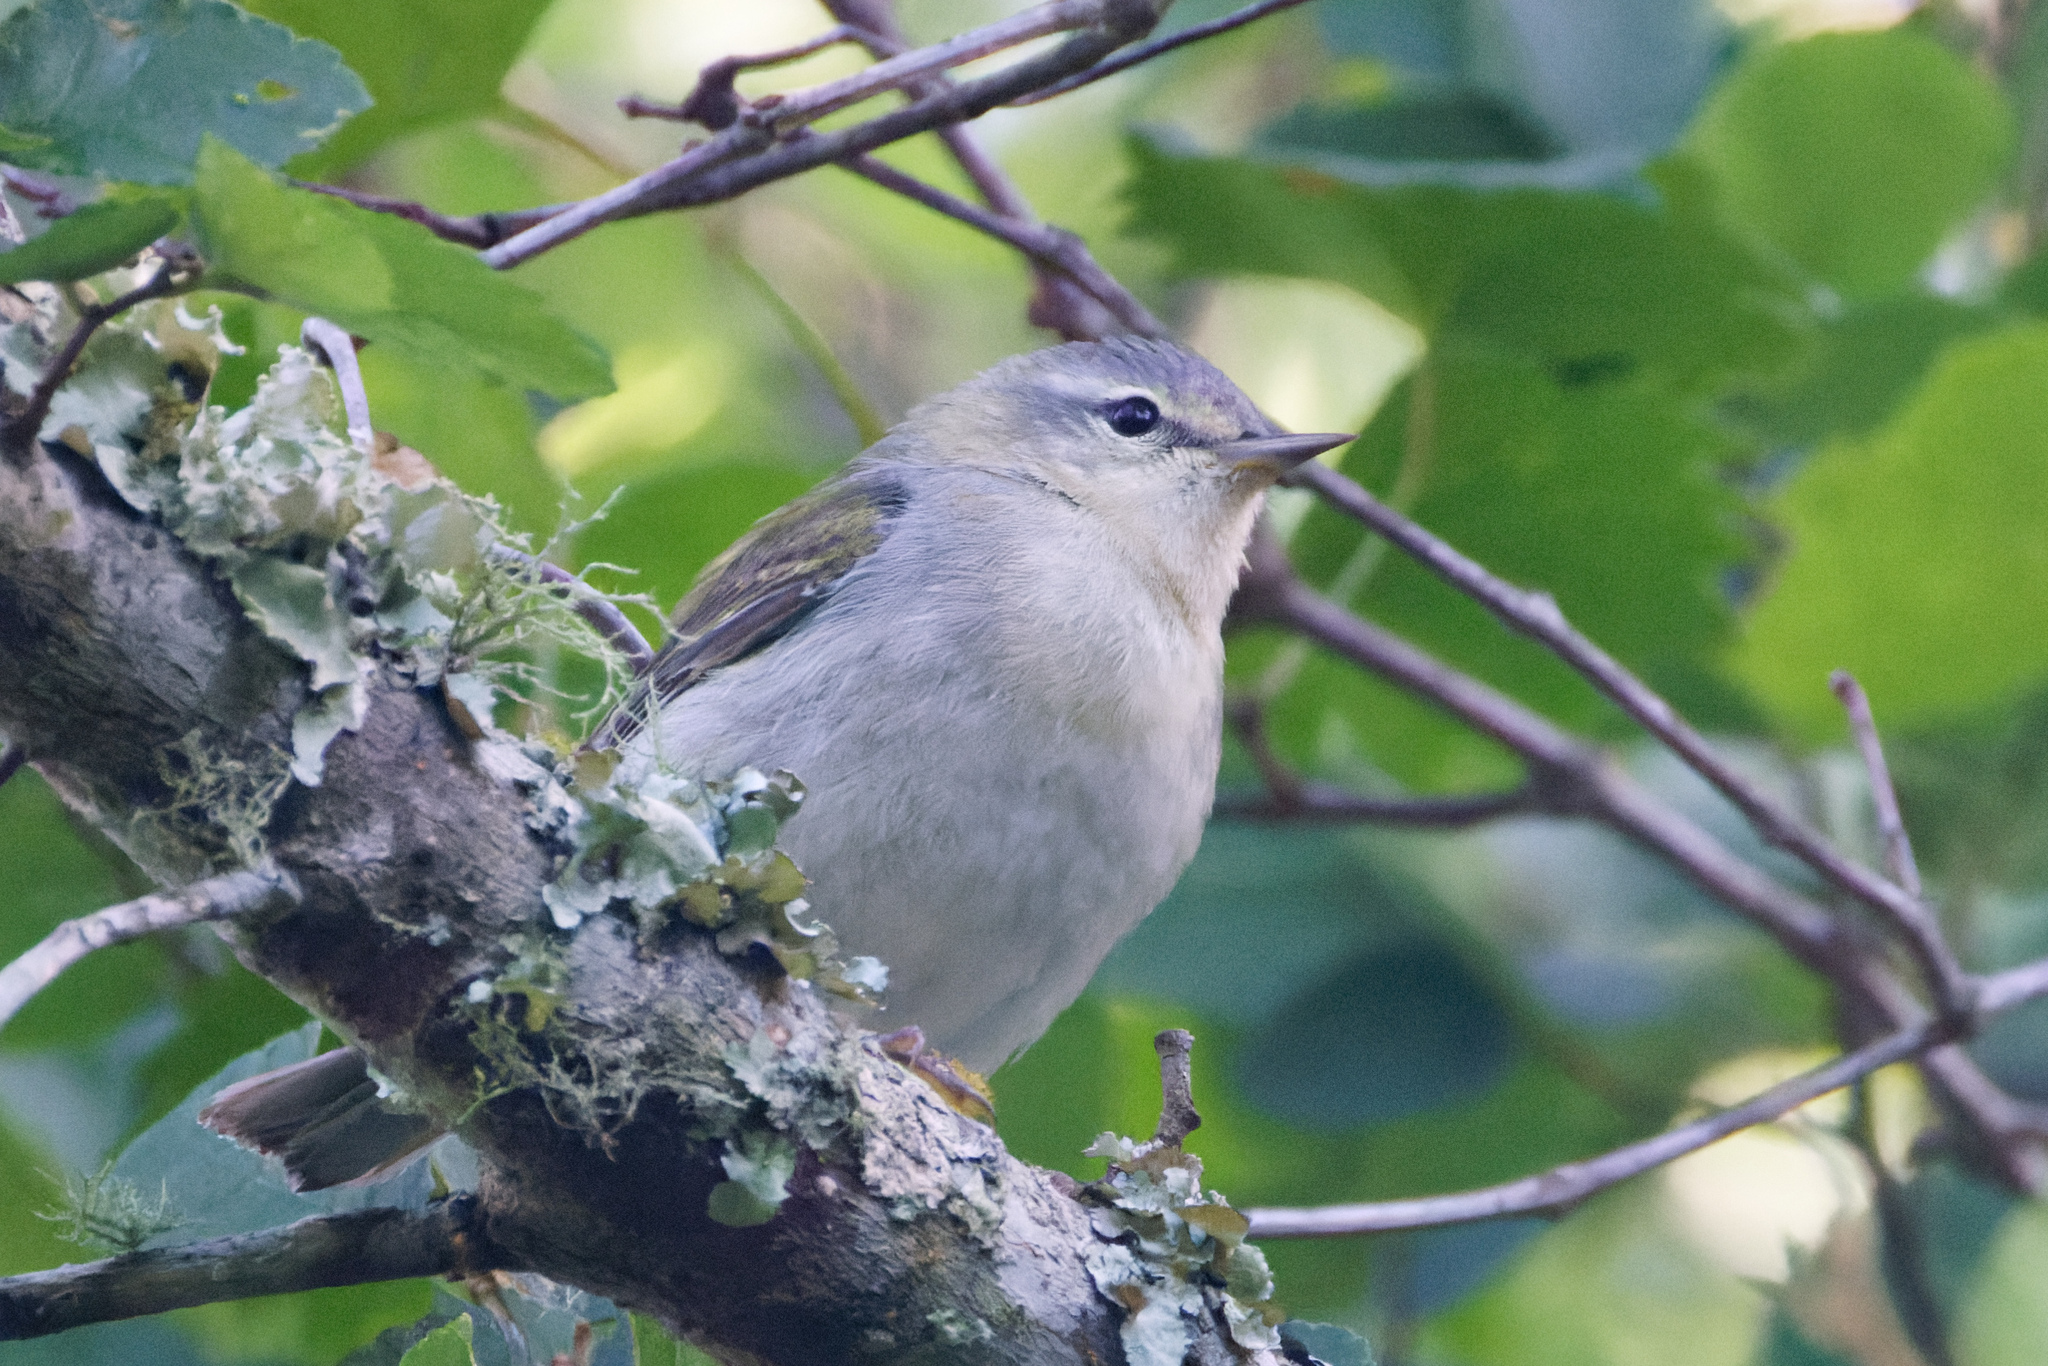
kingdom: Animalia
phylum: Chordata
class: Aves
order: Passeriformes
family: Parulidae
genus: Leiothlypis
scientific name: Leiothlypis peregrina
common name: Tennessee warbler
